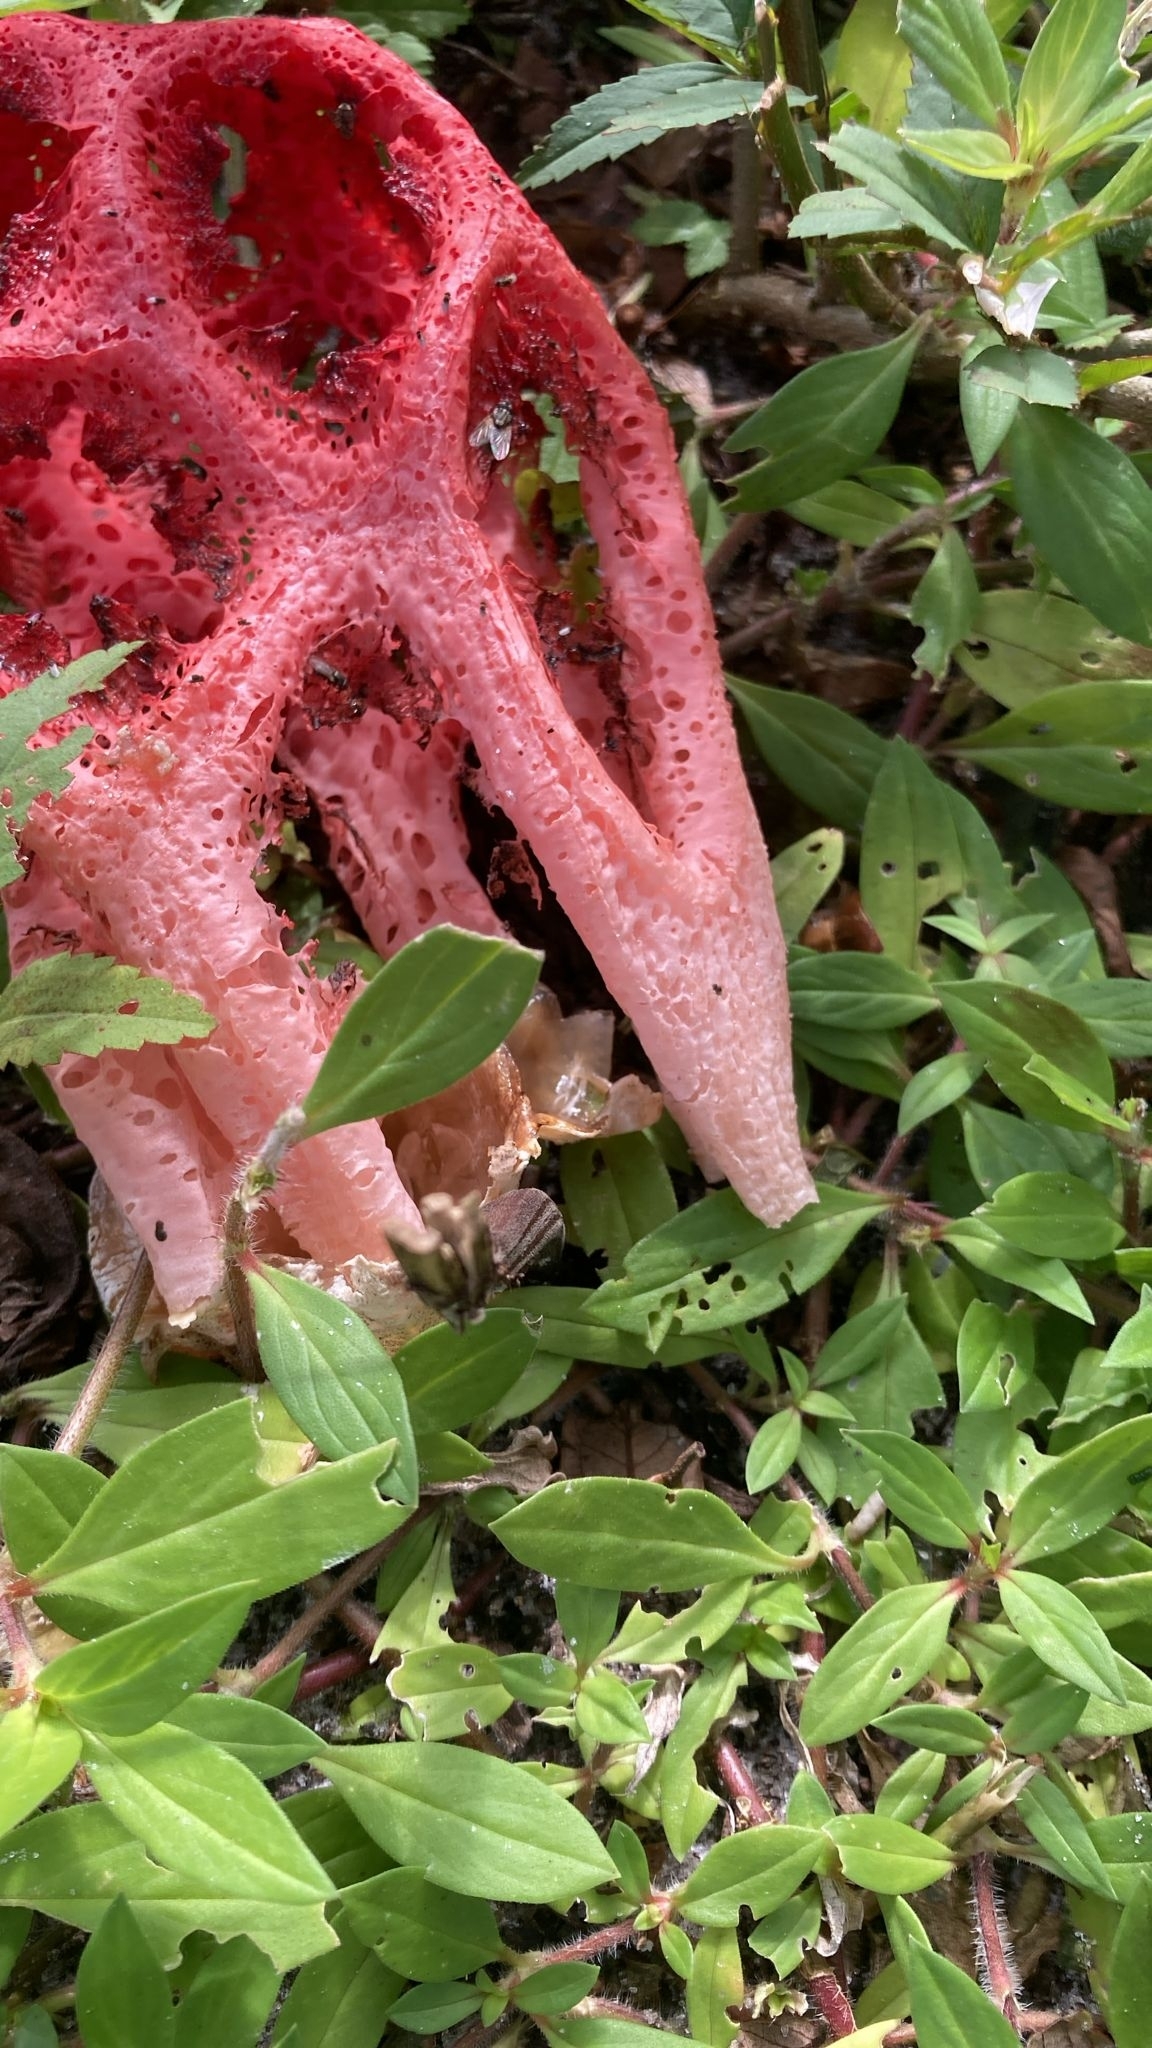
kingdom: Fungi
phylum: Basidiomycota
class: Agaricomycetes
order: Phallales
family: Phallaceae
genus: Clathrus
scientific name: Clathrus crispatus
